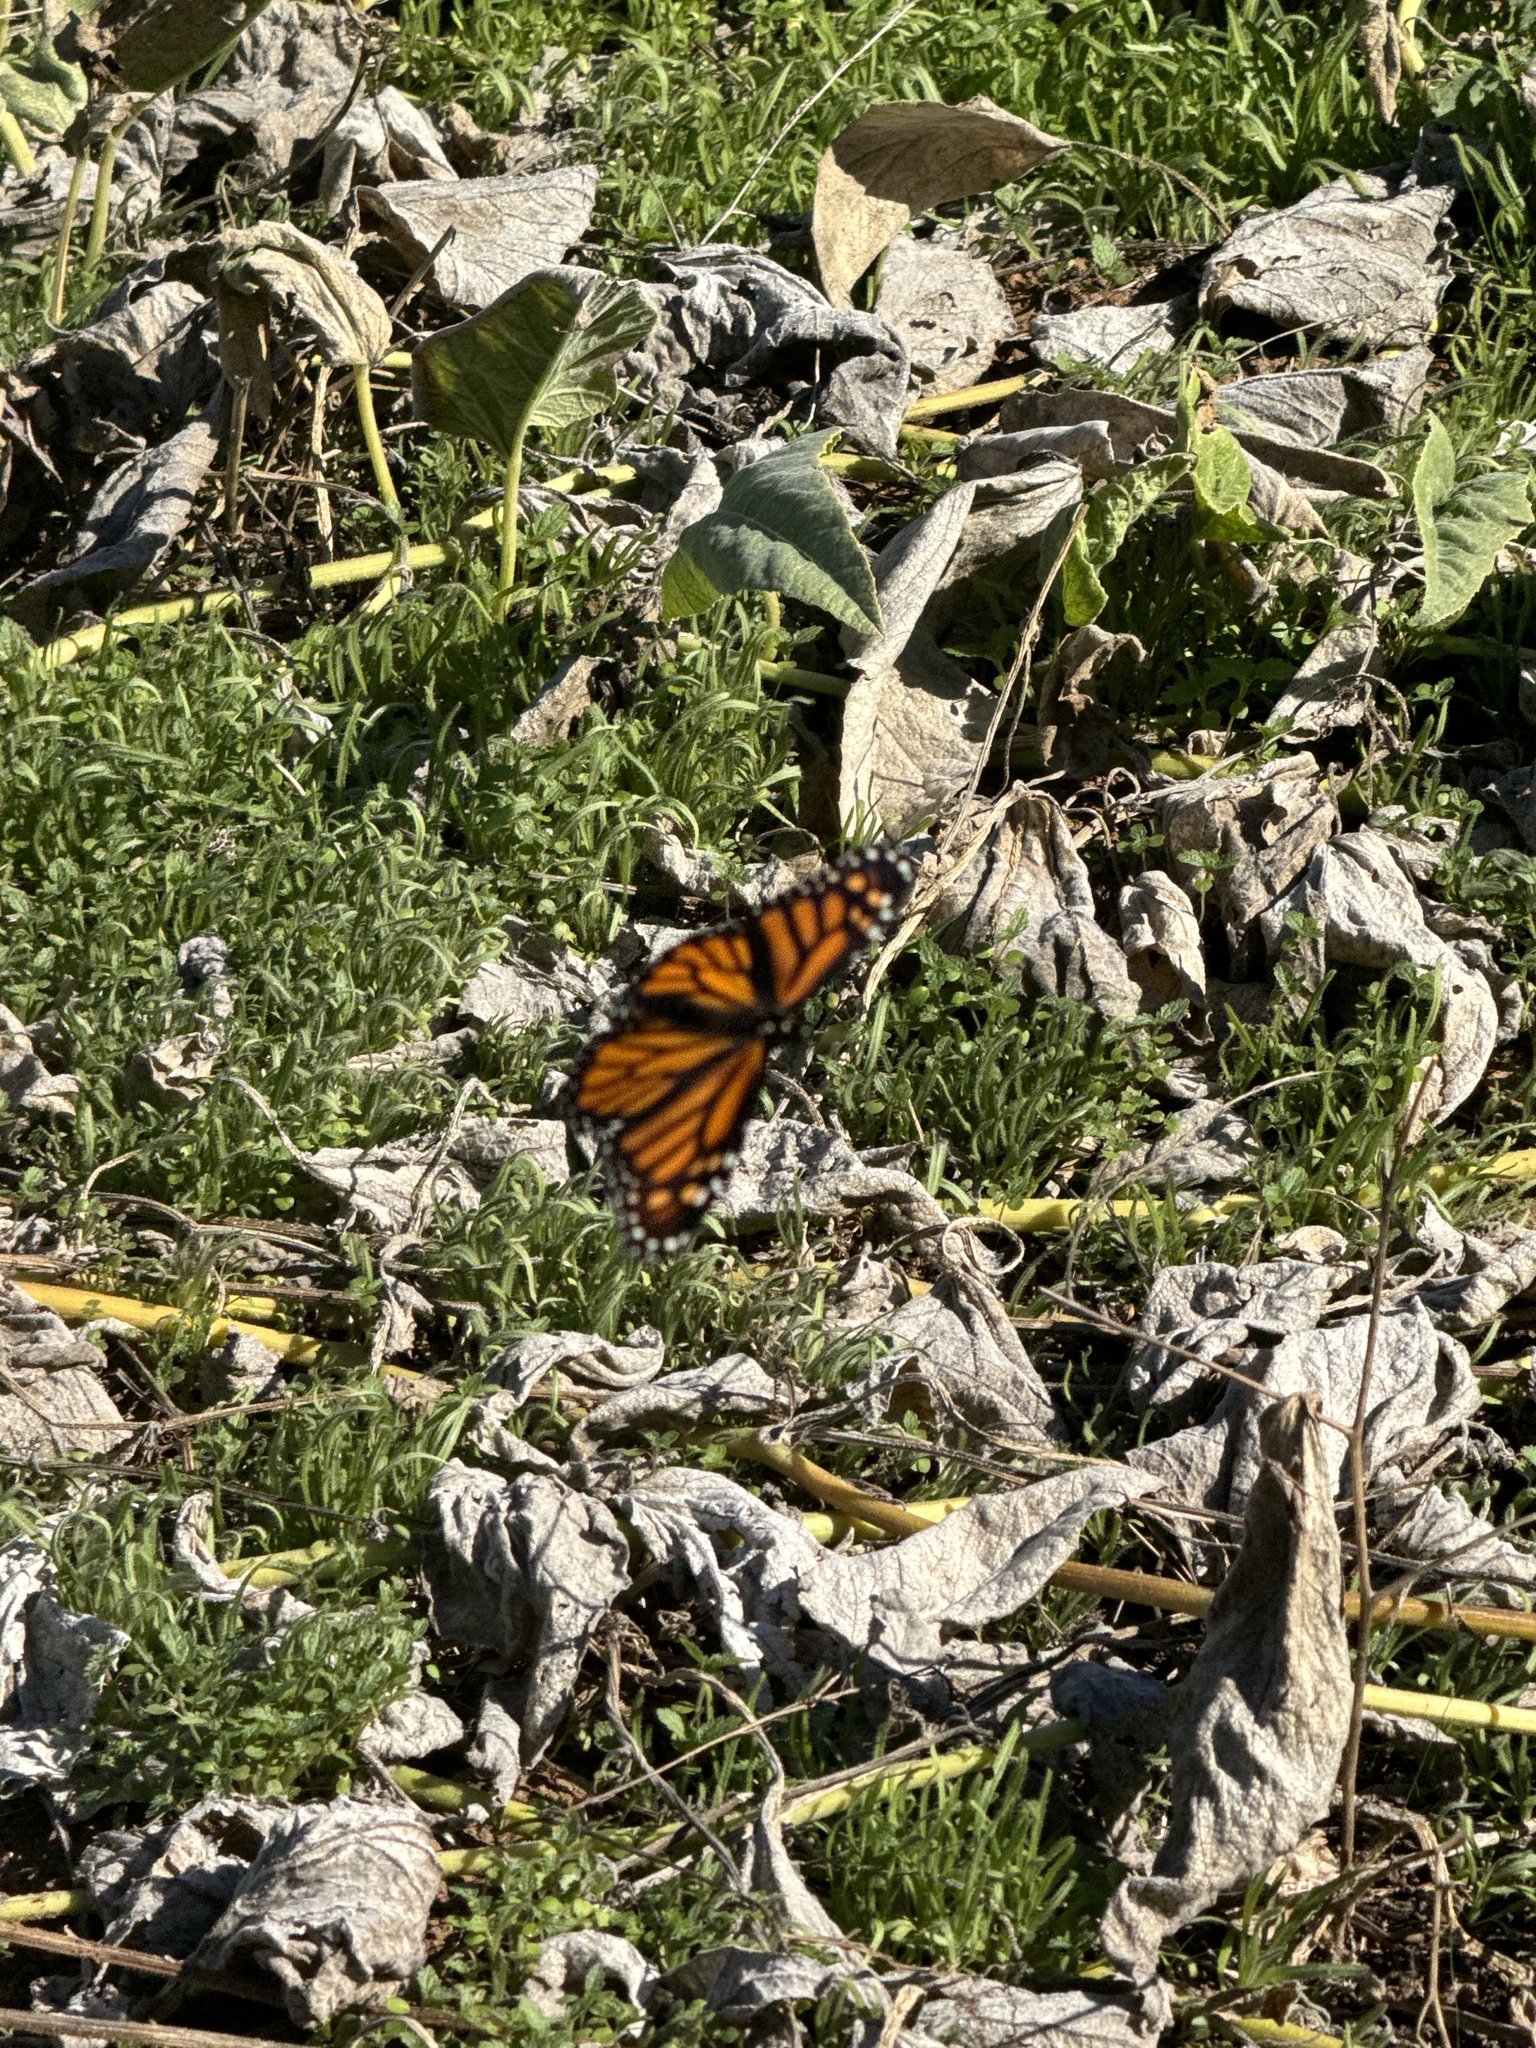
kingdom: Animalia
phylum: Arthropoda
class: Insecta
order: Lepidoptera
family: Nymphalidae
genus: Danaus
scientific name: Danaus plexippus
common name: Monarch
